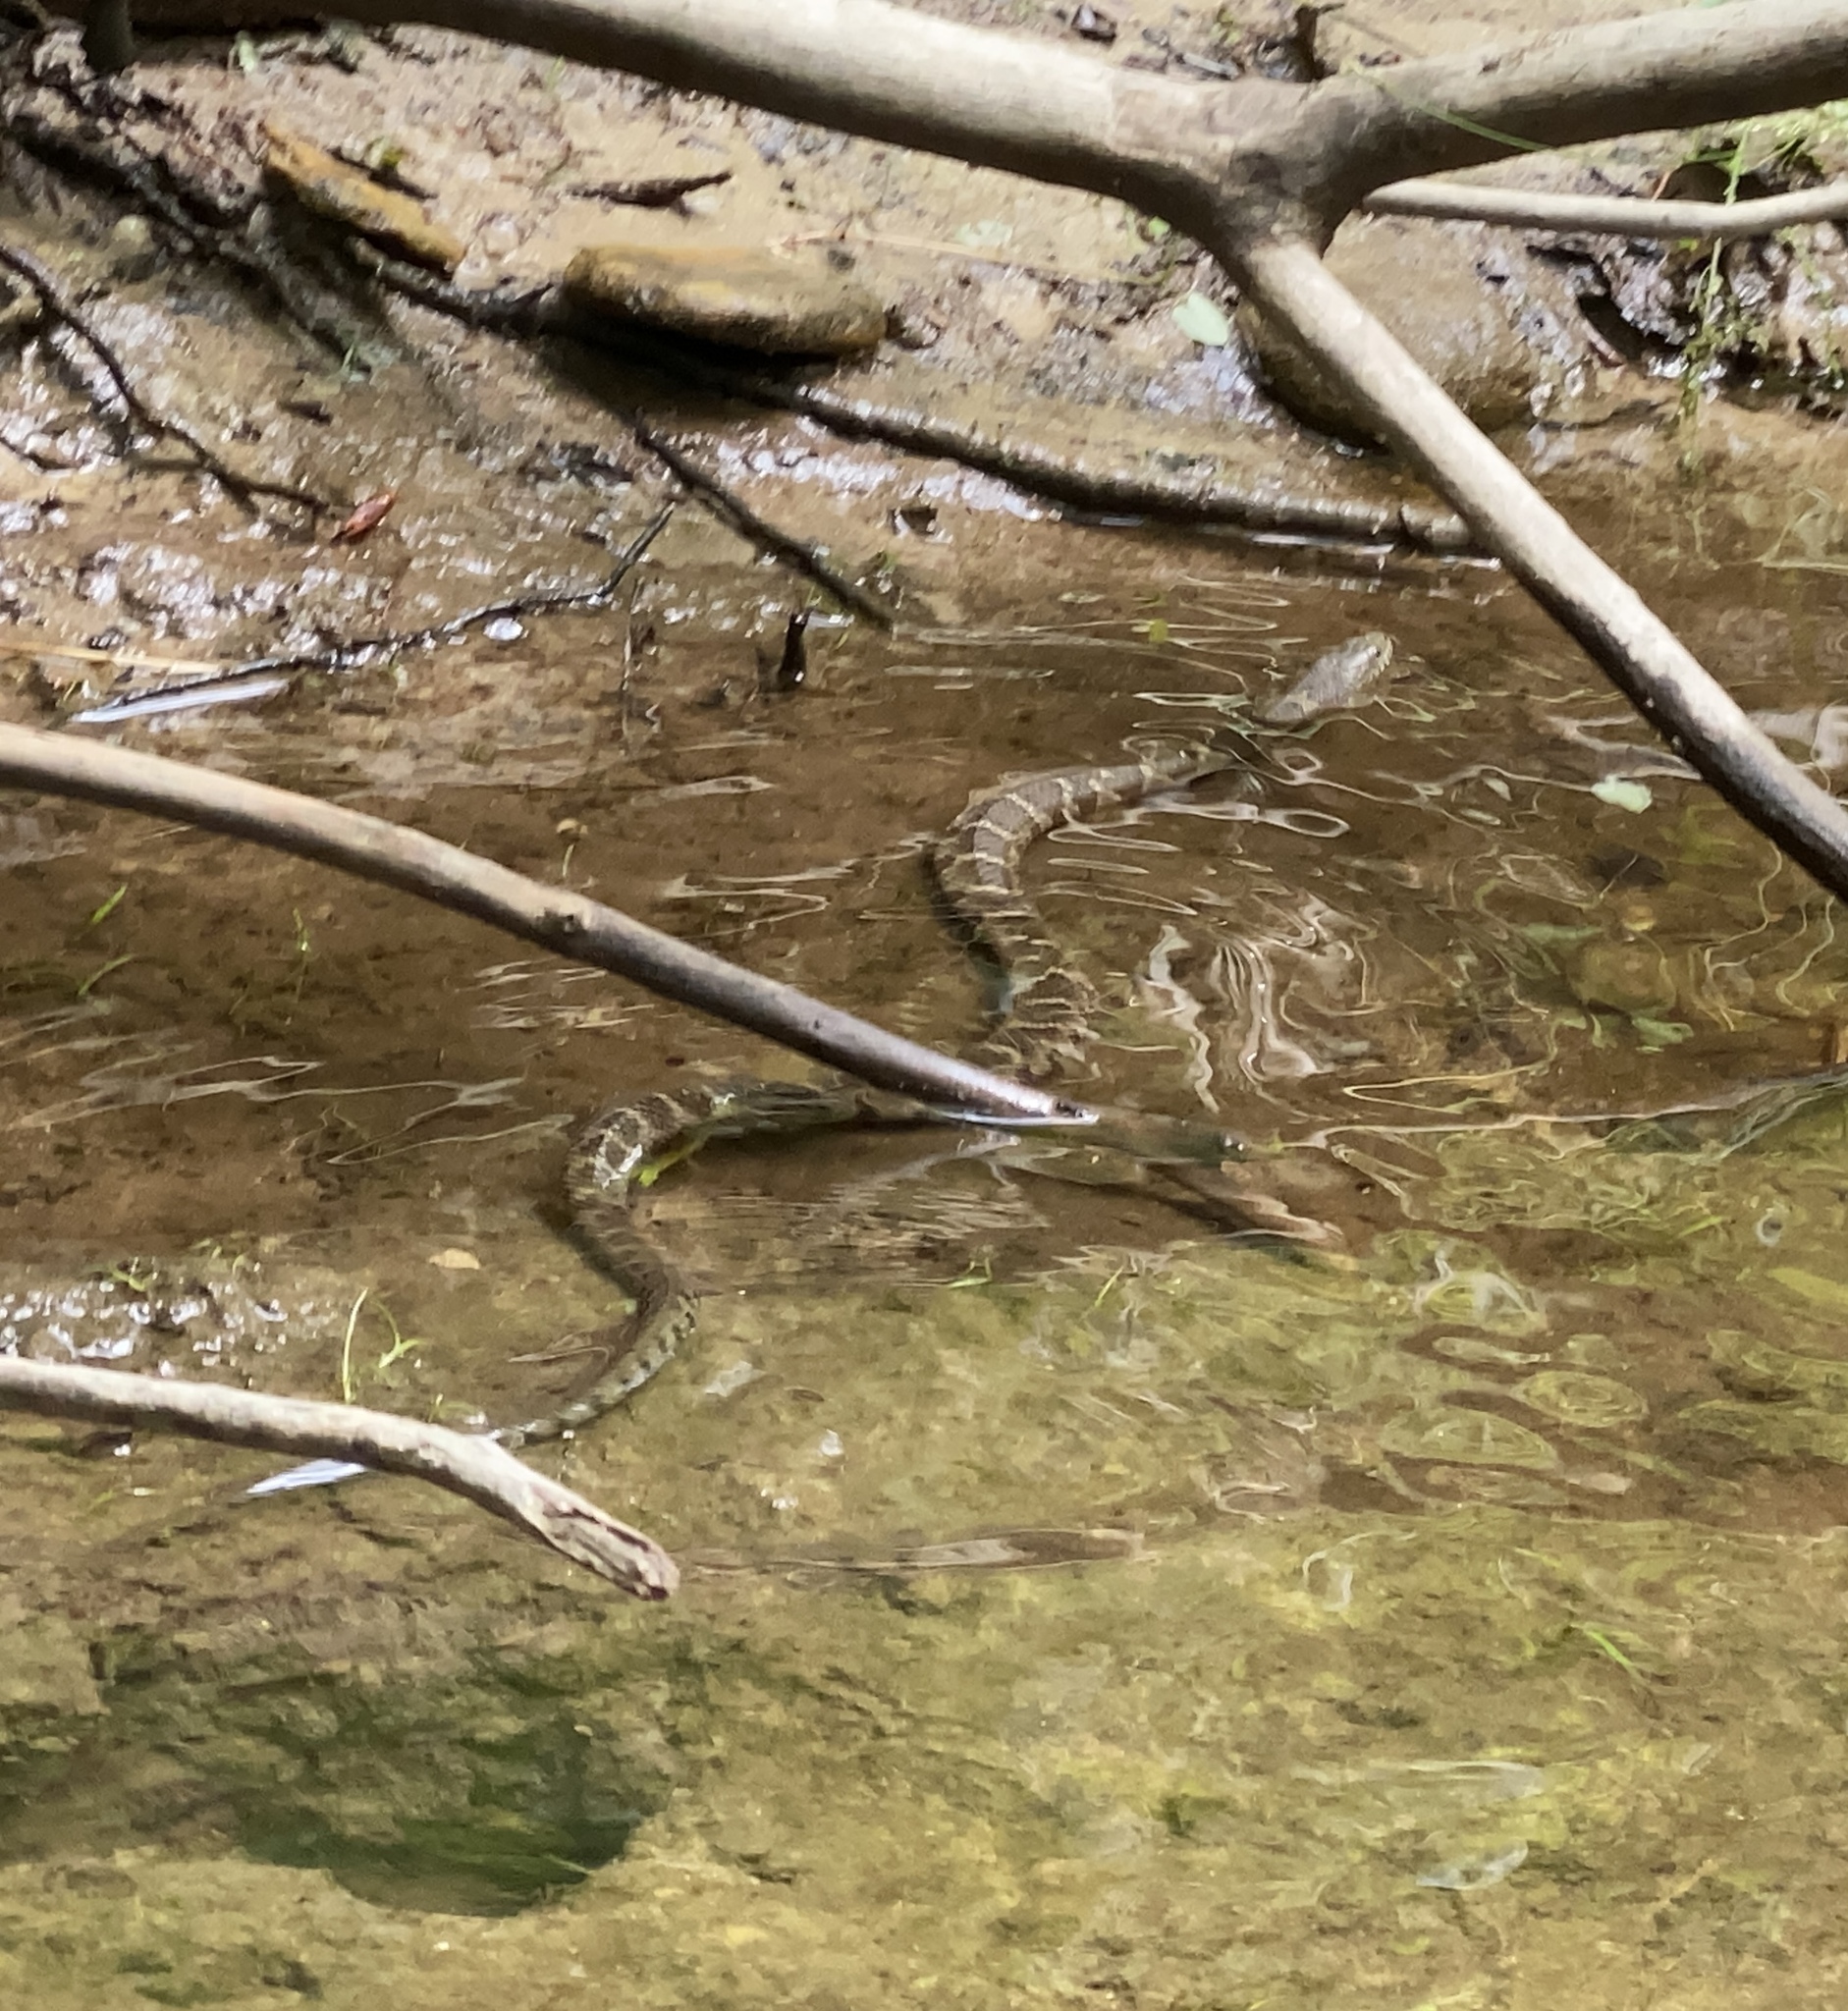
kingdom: Animalia
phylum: Chordata
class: Squamata
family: Colubridae
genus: Nerodia
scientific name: Nerodia sipedon
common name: Northern water snake
